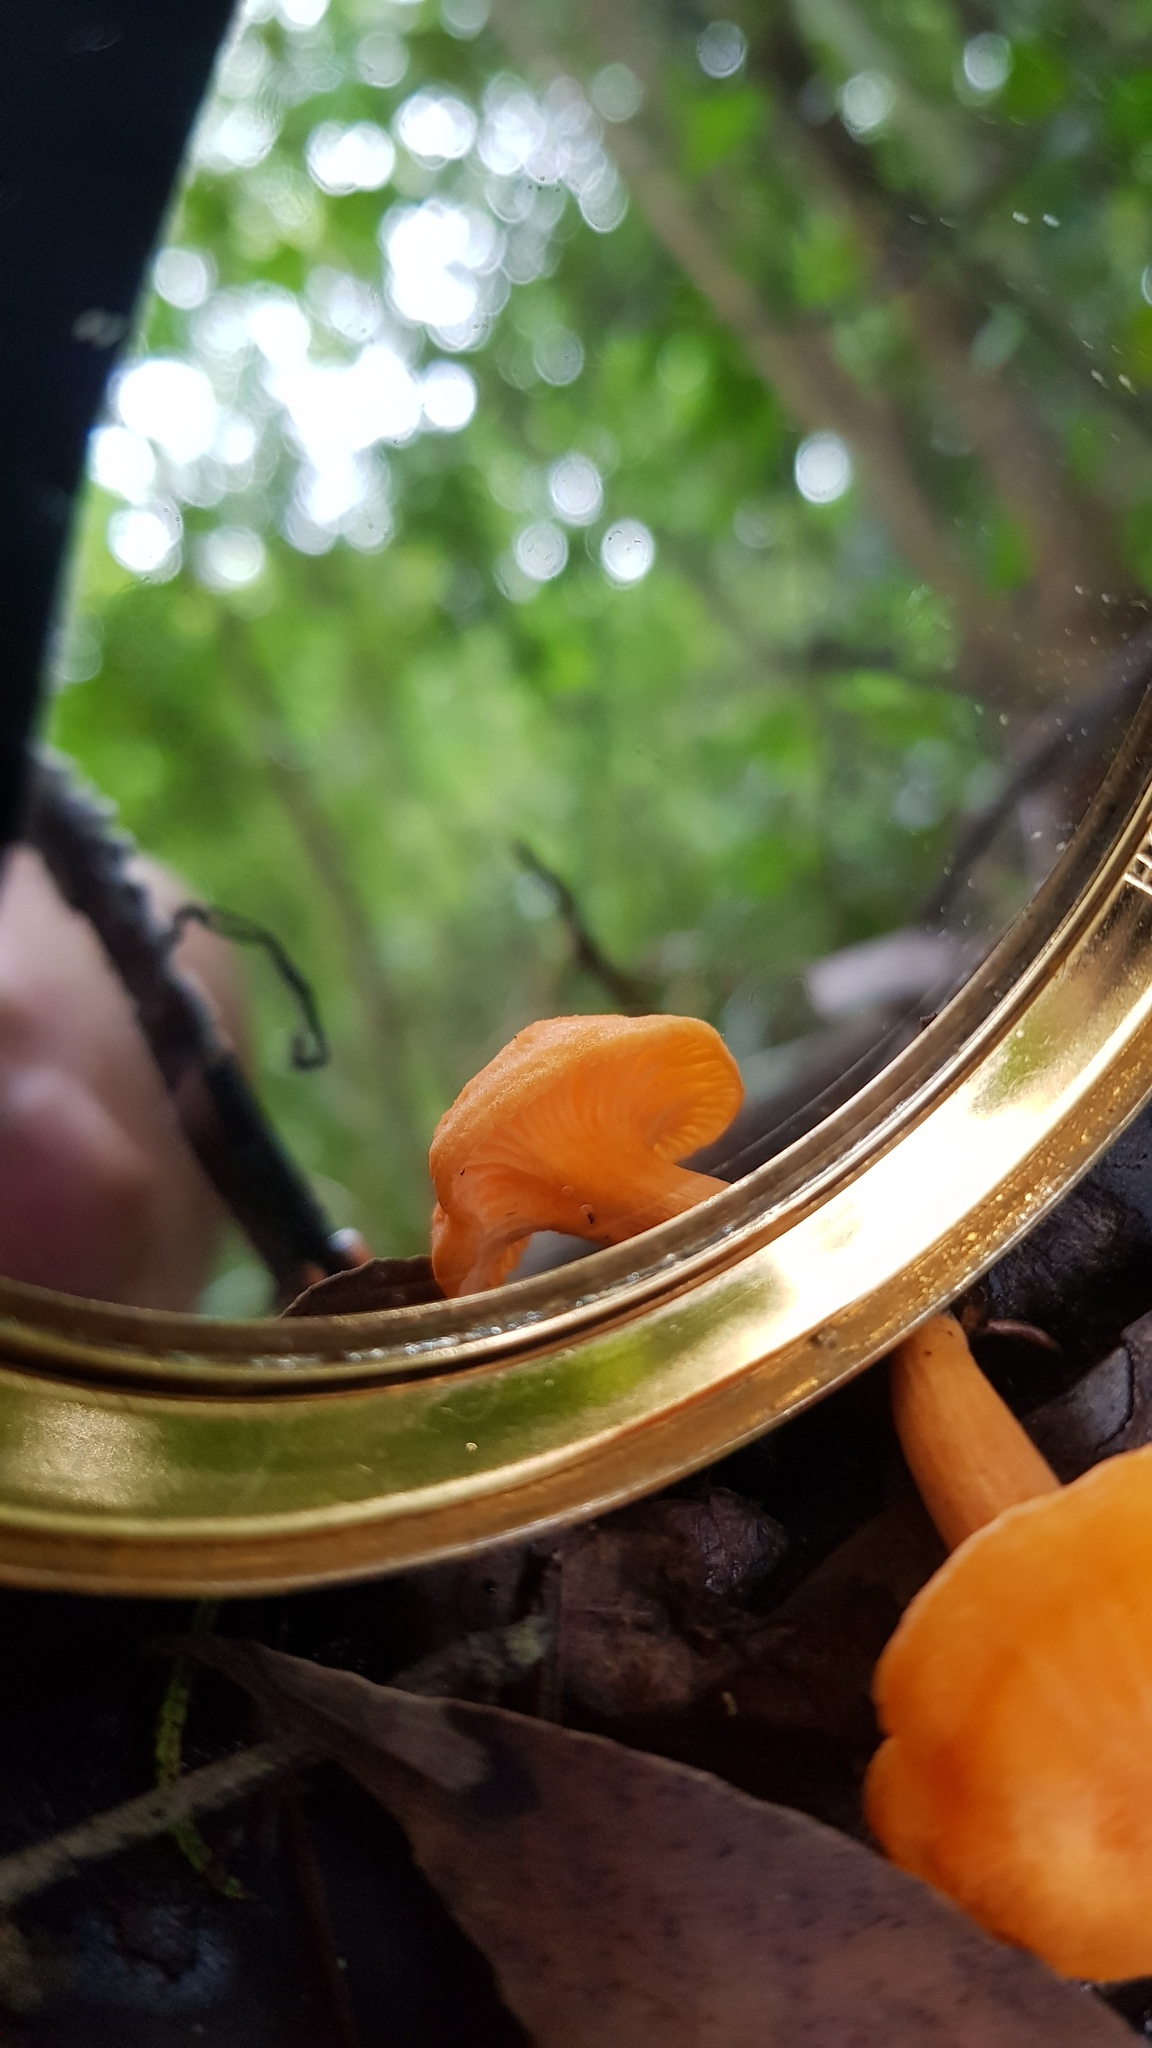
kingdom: Fungi
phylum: Basidiomycota
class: Agaricomycetes
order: Cantharellales
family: Hydnaceae
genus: Cantharellus
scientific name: Cantharellus
